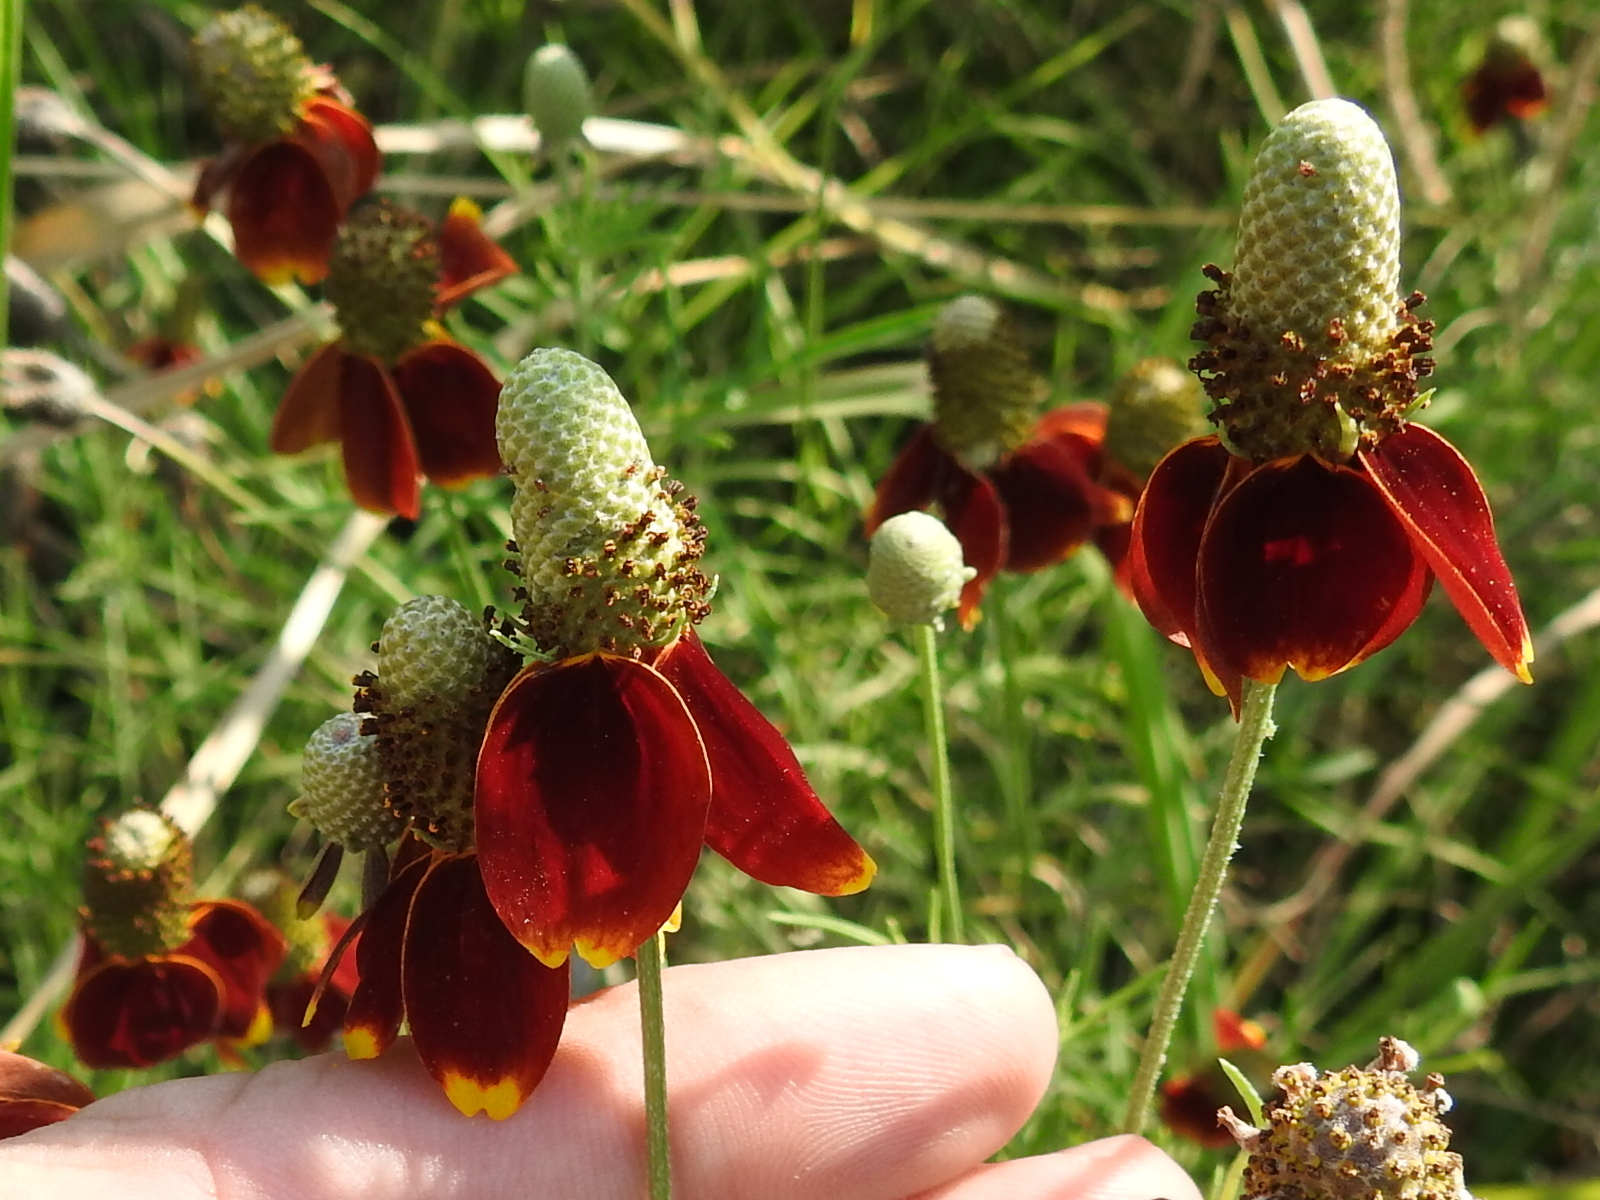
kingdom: Plantae
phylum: Tracheophyta
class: Magnoliopsida
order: Asterales
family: Asteraceae
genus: Ratibida
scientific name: Ratibida columnifera
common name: Prairie coneflower
